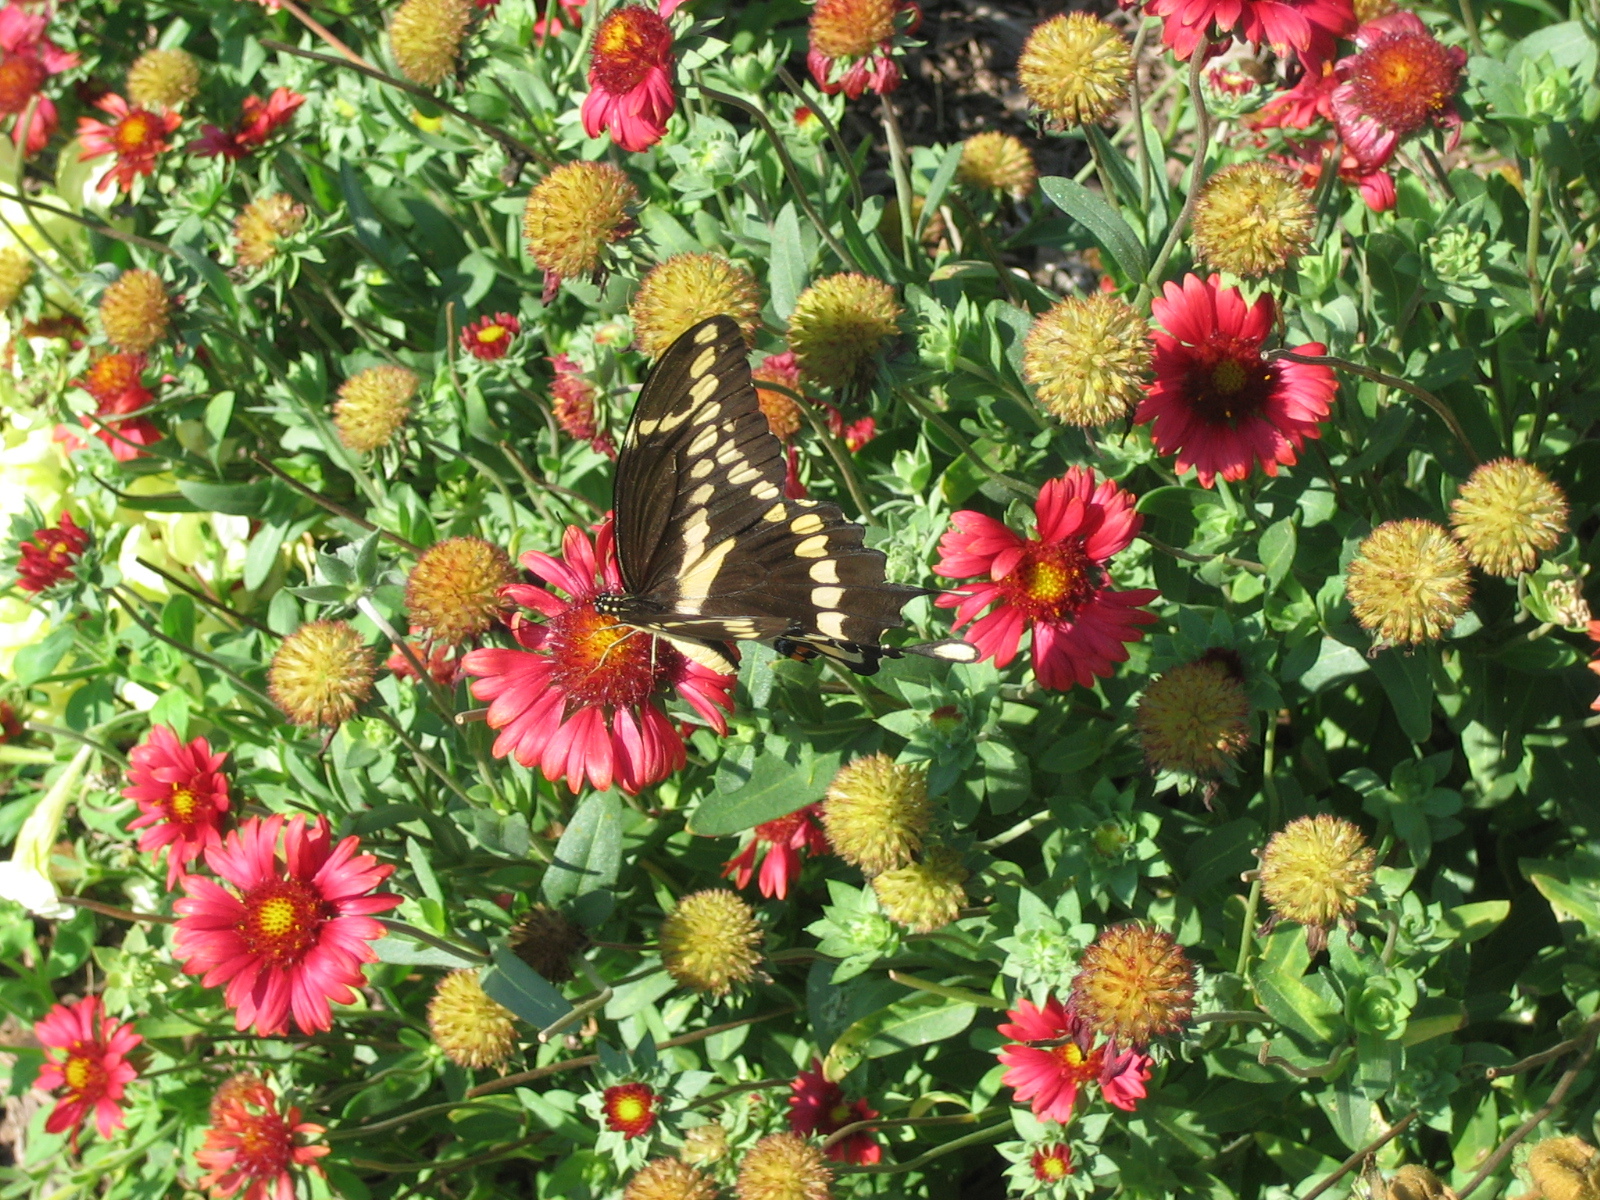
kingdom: Animalia
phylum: Arthropoda
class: Insecta
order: Lepidoptera
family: Papilionidae
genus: Papilio
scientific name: Papilio cresphontes
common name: Giant swallowtail
